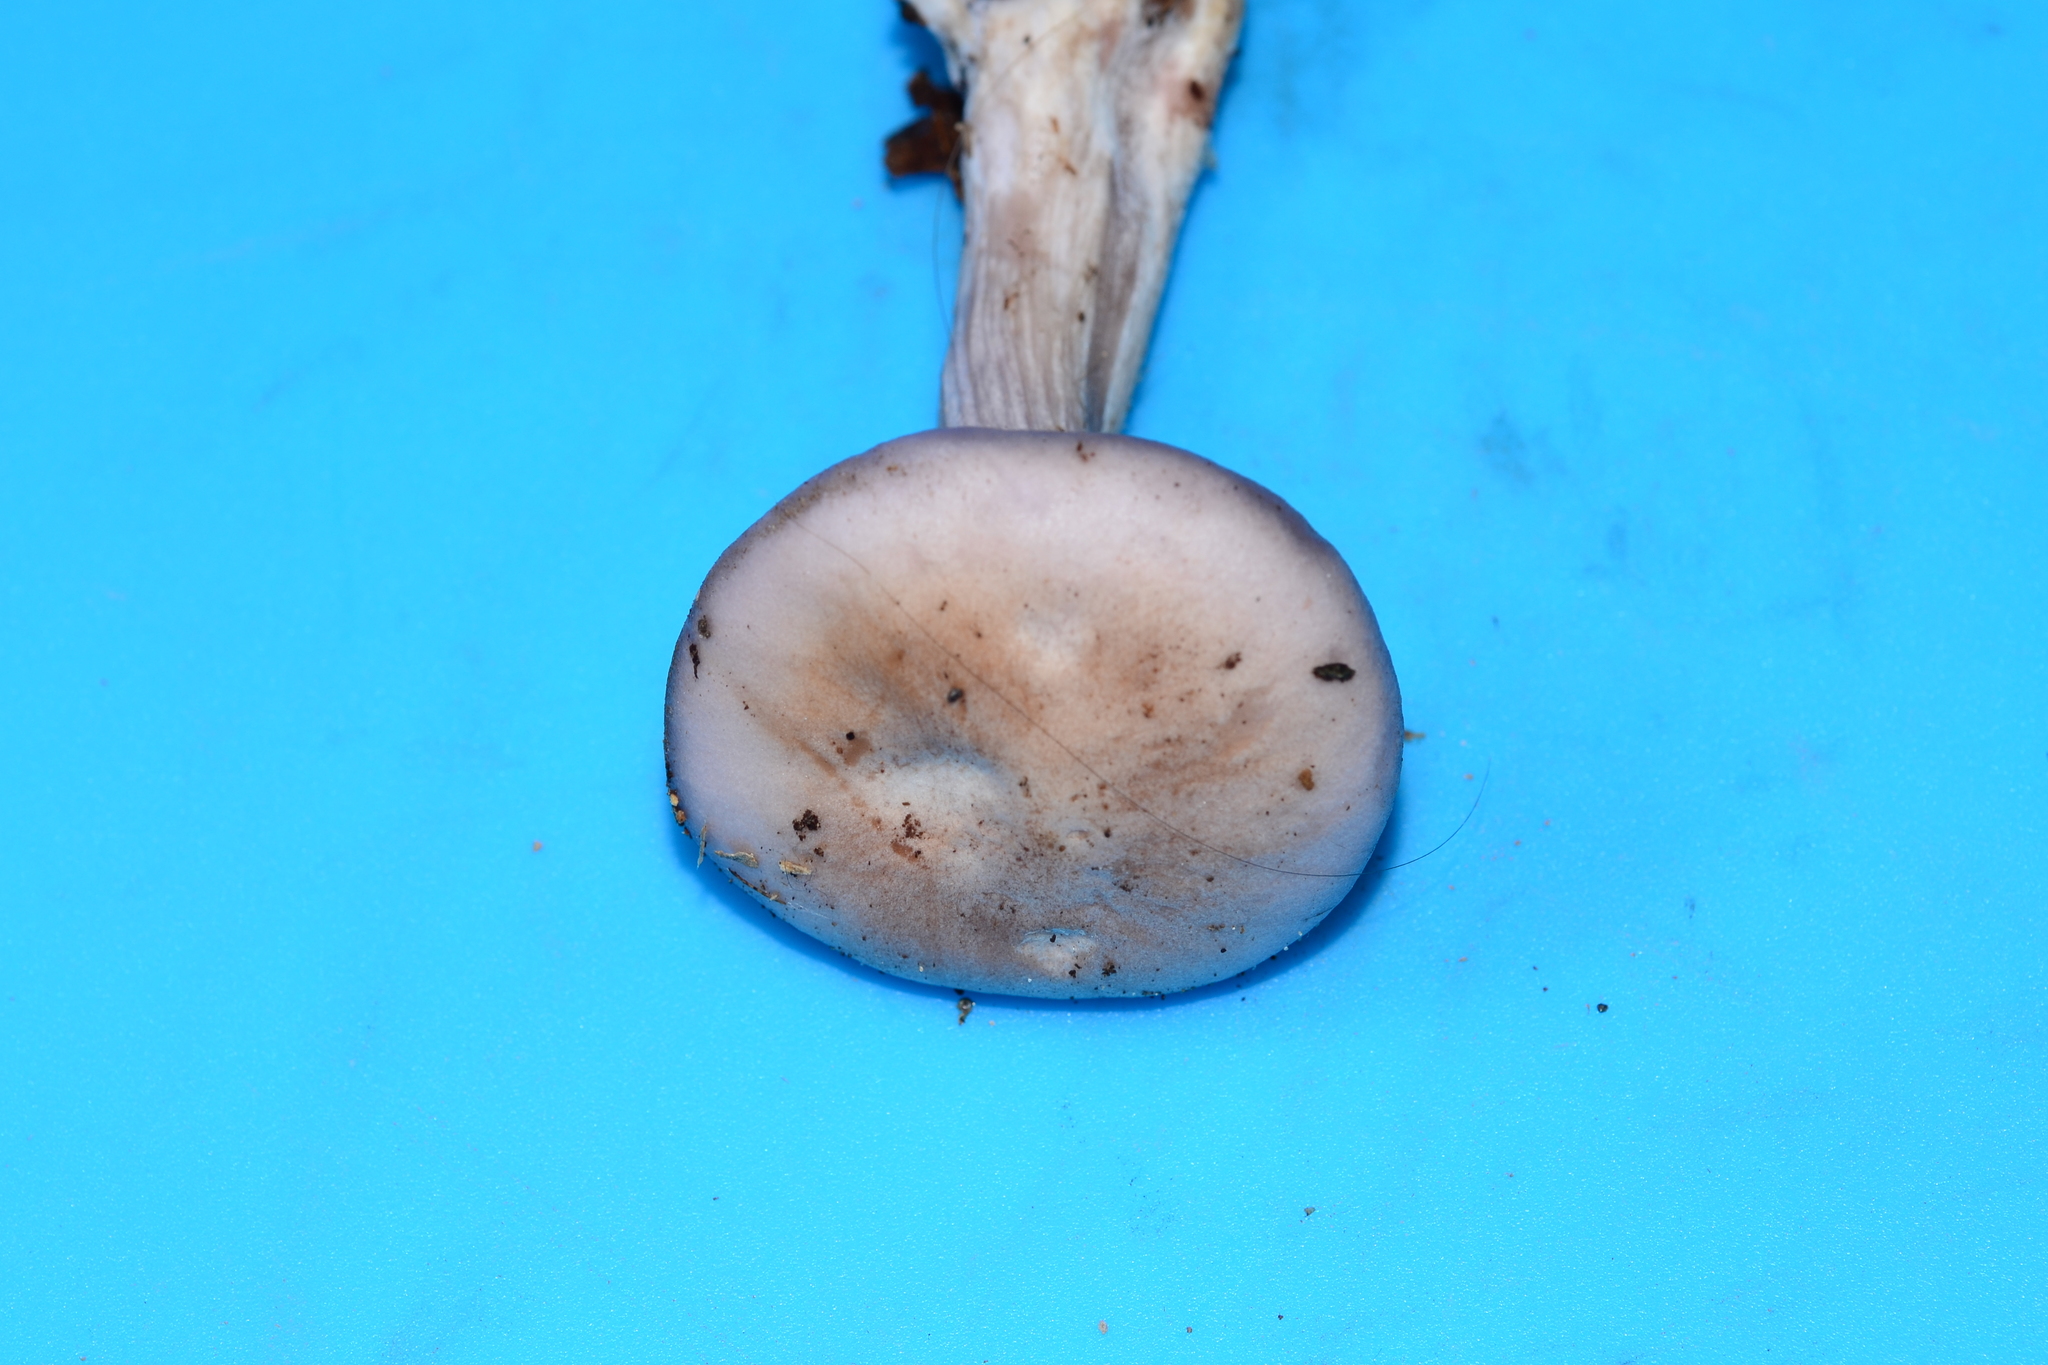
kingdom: Fungi
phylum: Basidiomycota
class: Agaricomycetes
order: Agaricales
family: Tricholomataceae
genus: Collybia
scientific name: Collybia
